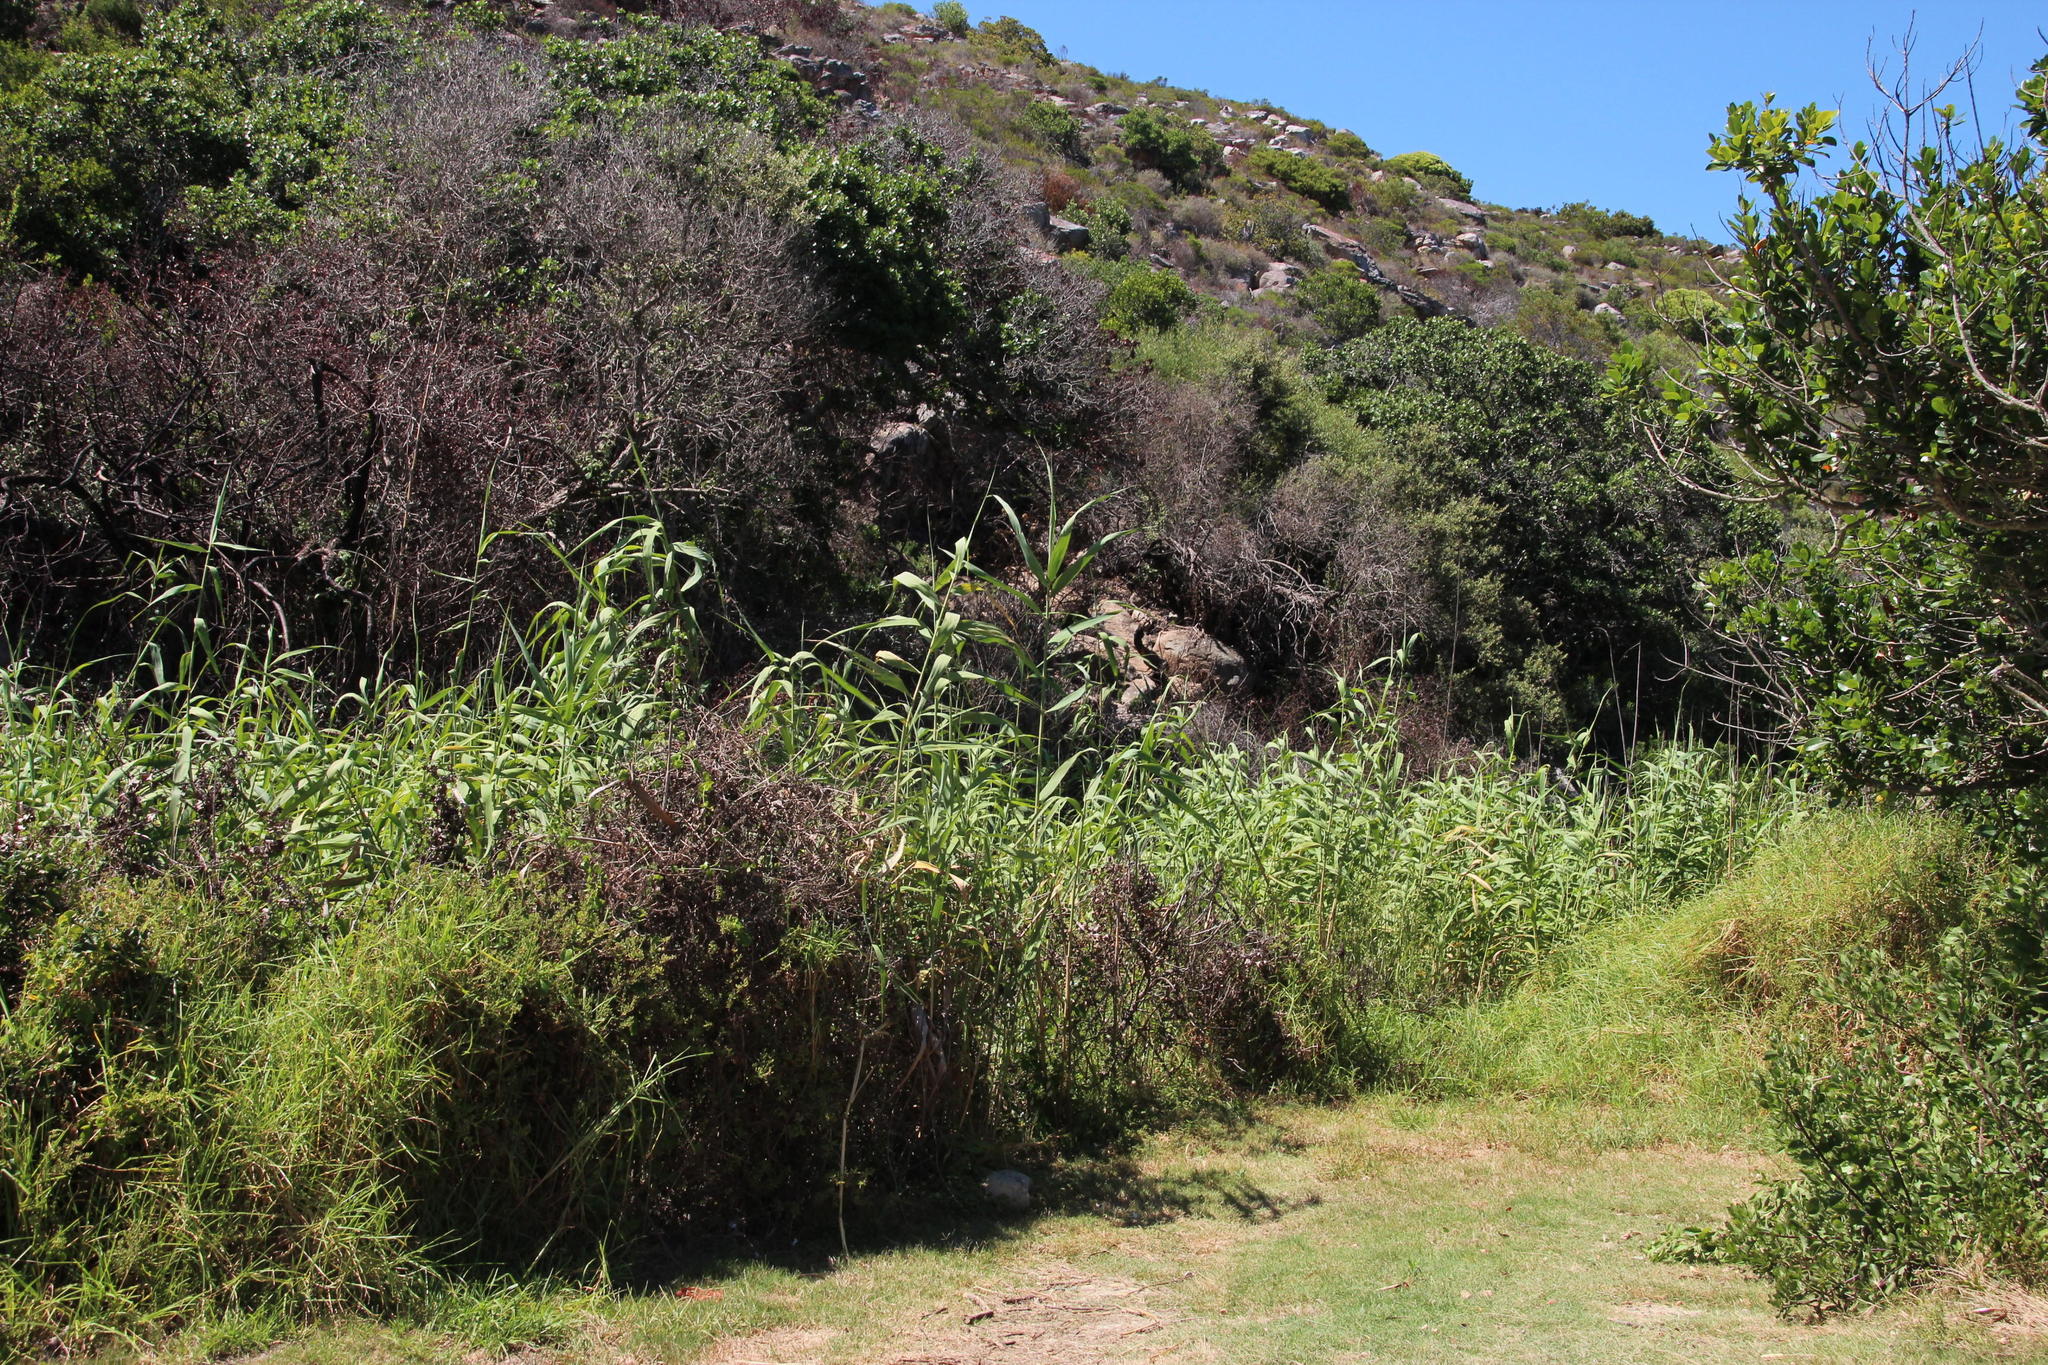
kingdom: Plantae
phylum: Tracheophyta
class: Liliopsida
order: Poales
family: Poaceae
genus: Phragmites
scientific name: Phragmites australis
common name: Common reed
